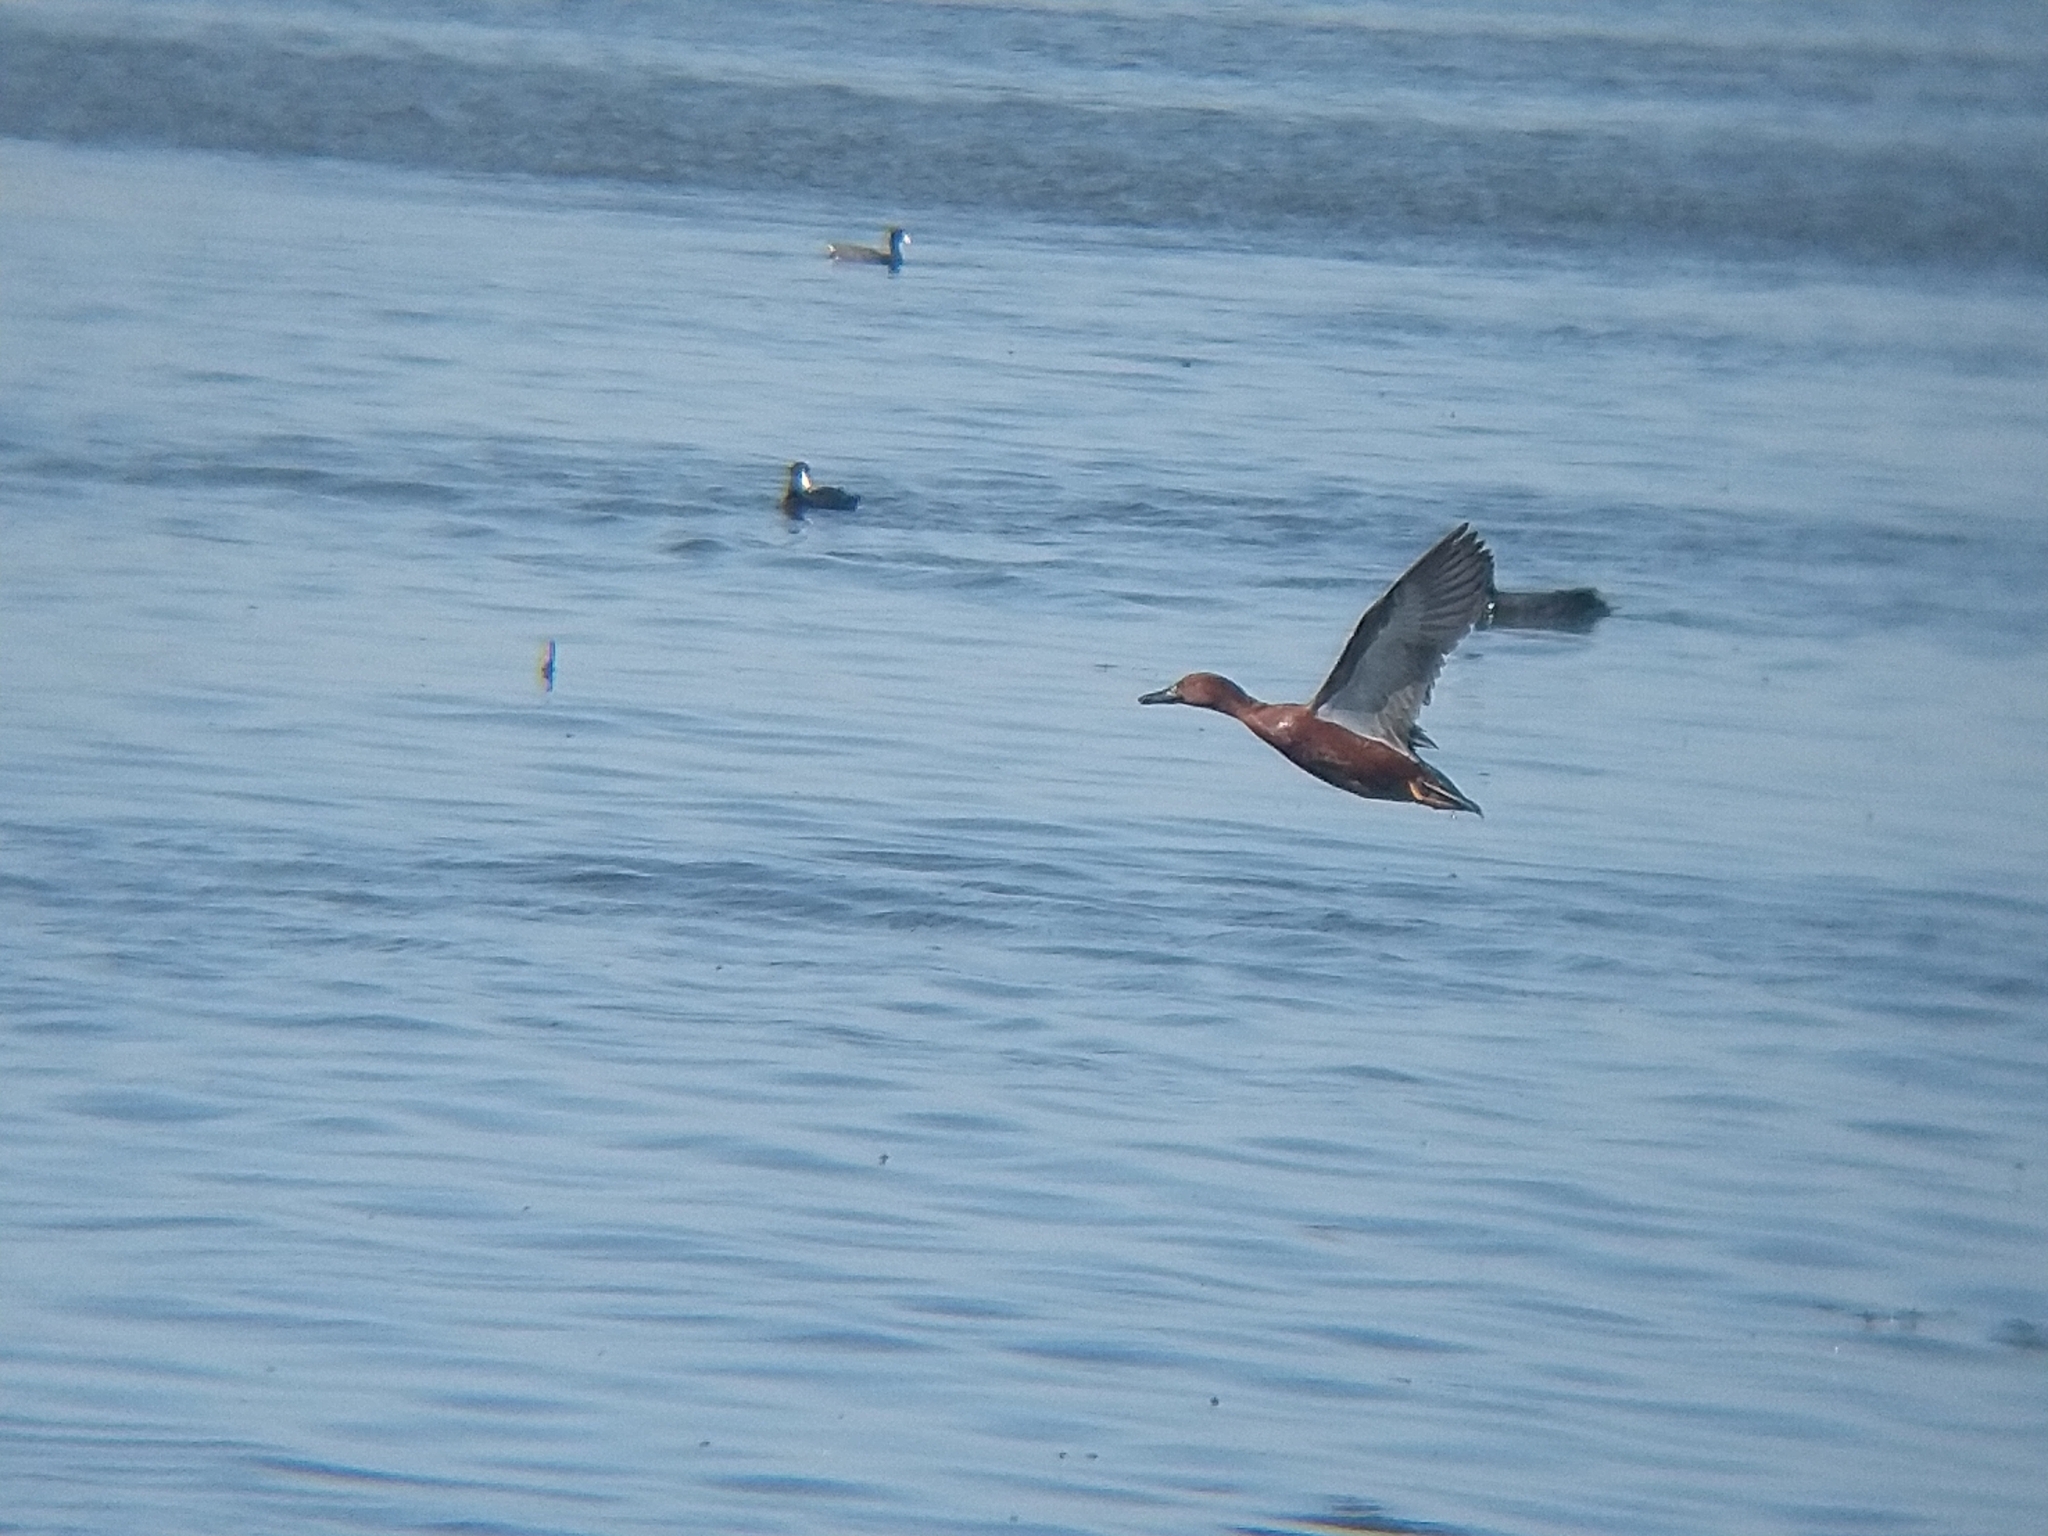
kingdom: Animalia
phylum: Chordata
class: Aves
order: Anseriformes
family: Anatidae
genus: Spatula
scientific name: Spatula cyanoptera
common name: Cinnamon teal
